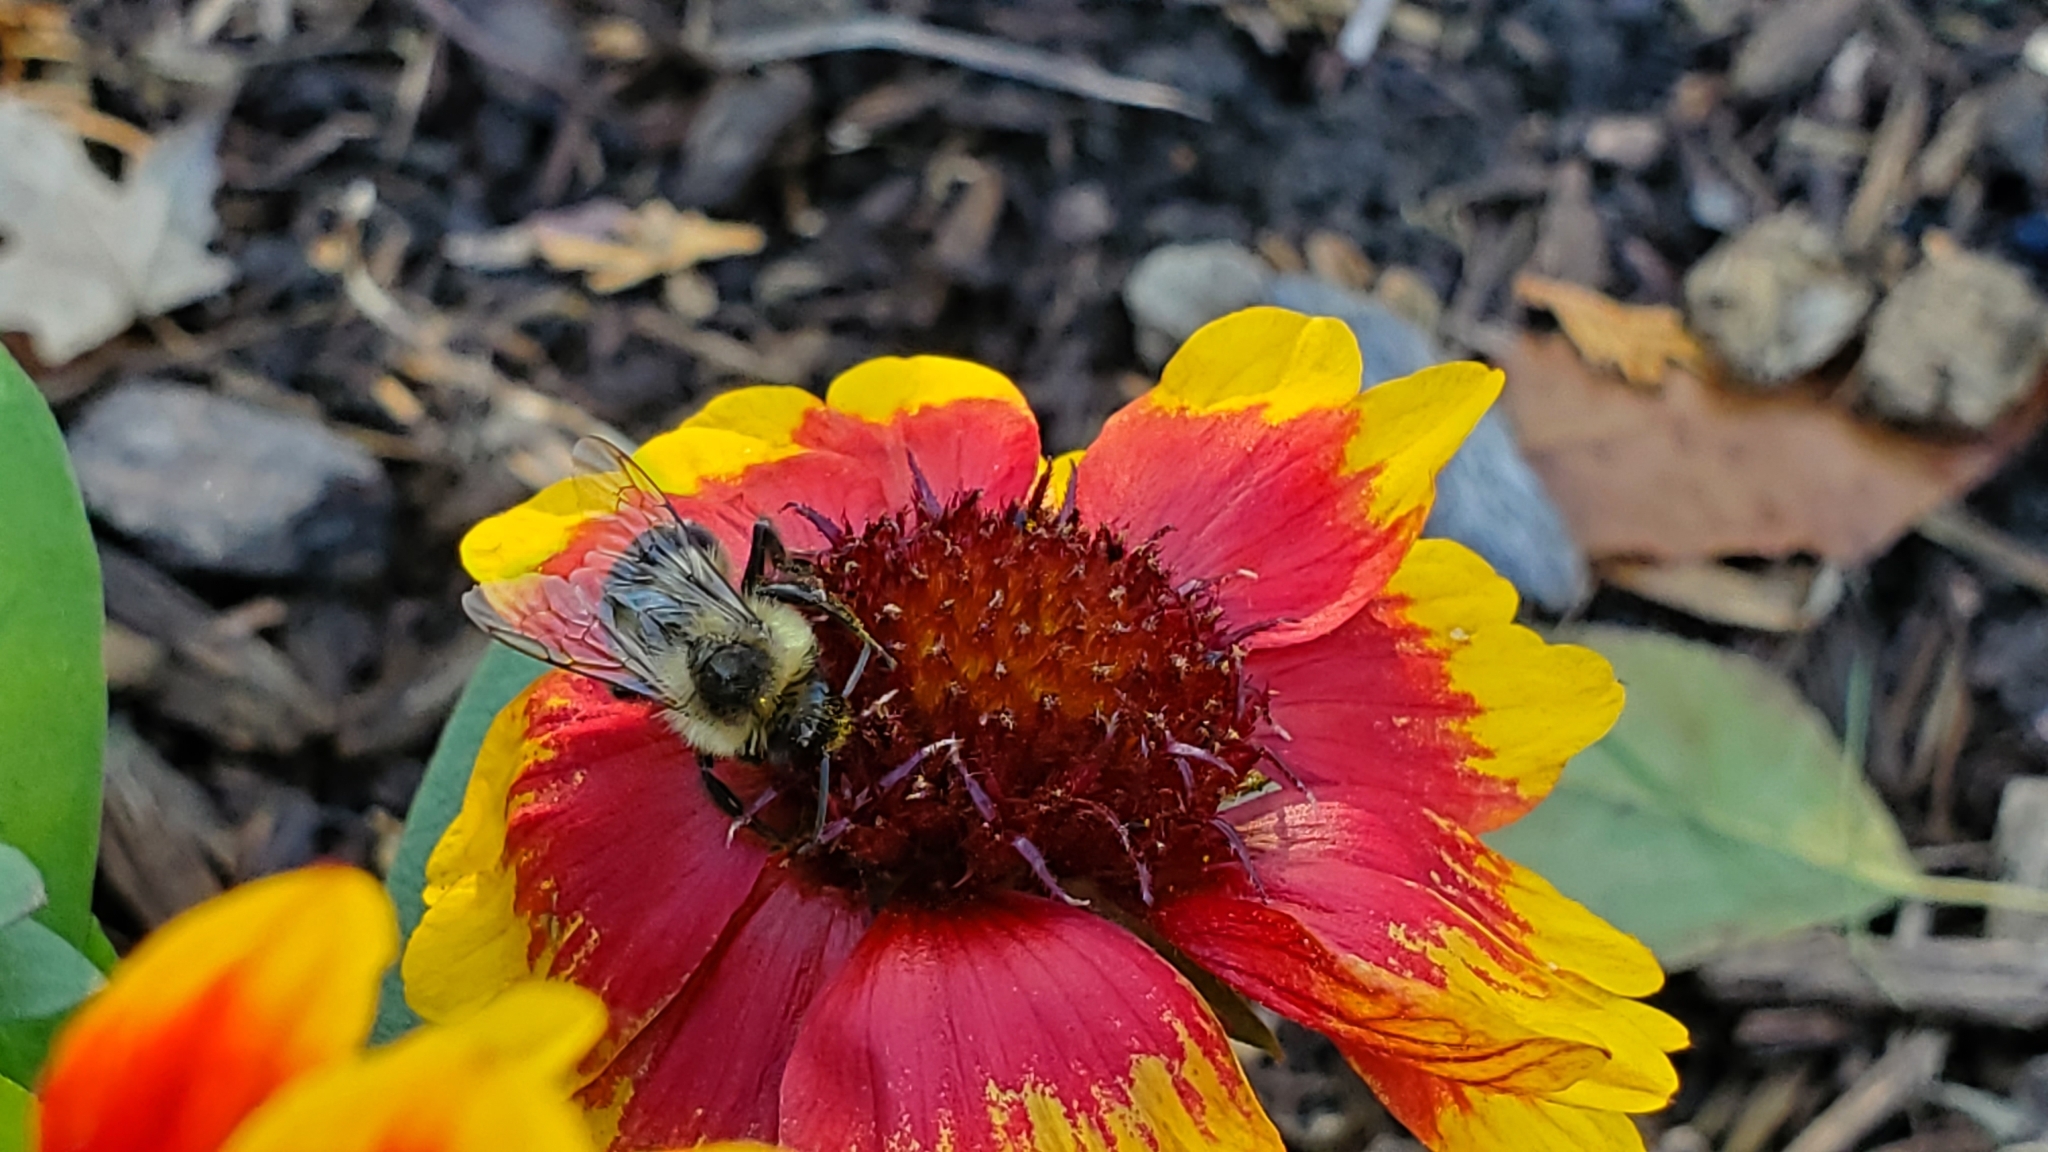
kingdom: Animalia
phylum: Arthropoda
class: Insecta
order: Hymenoptera
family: Apidae
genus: Bombus
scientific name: Bombus impatiens
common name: Common eastern bumble bee
